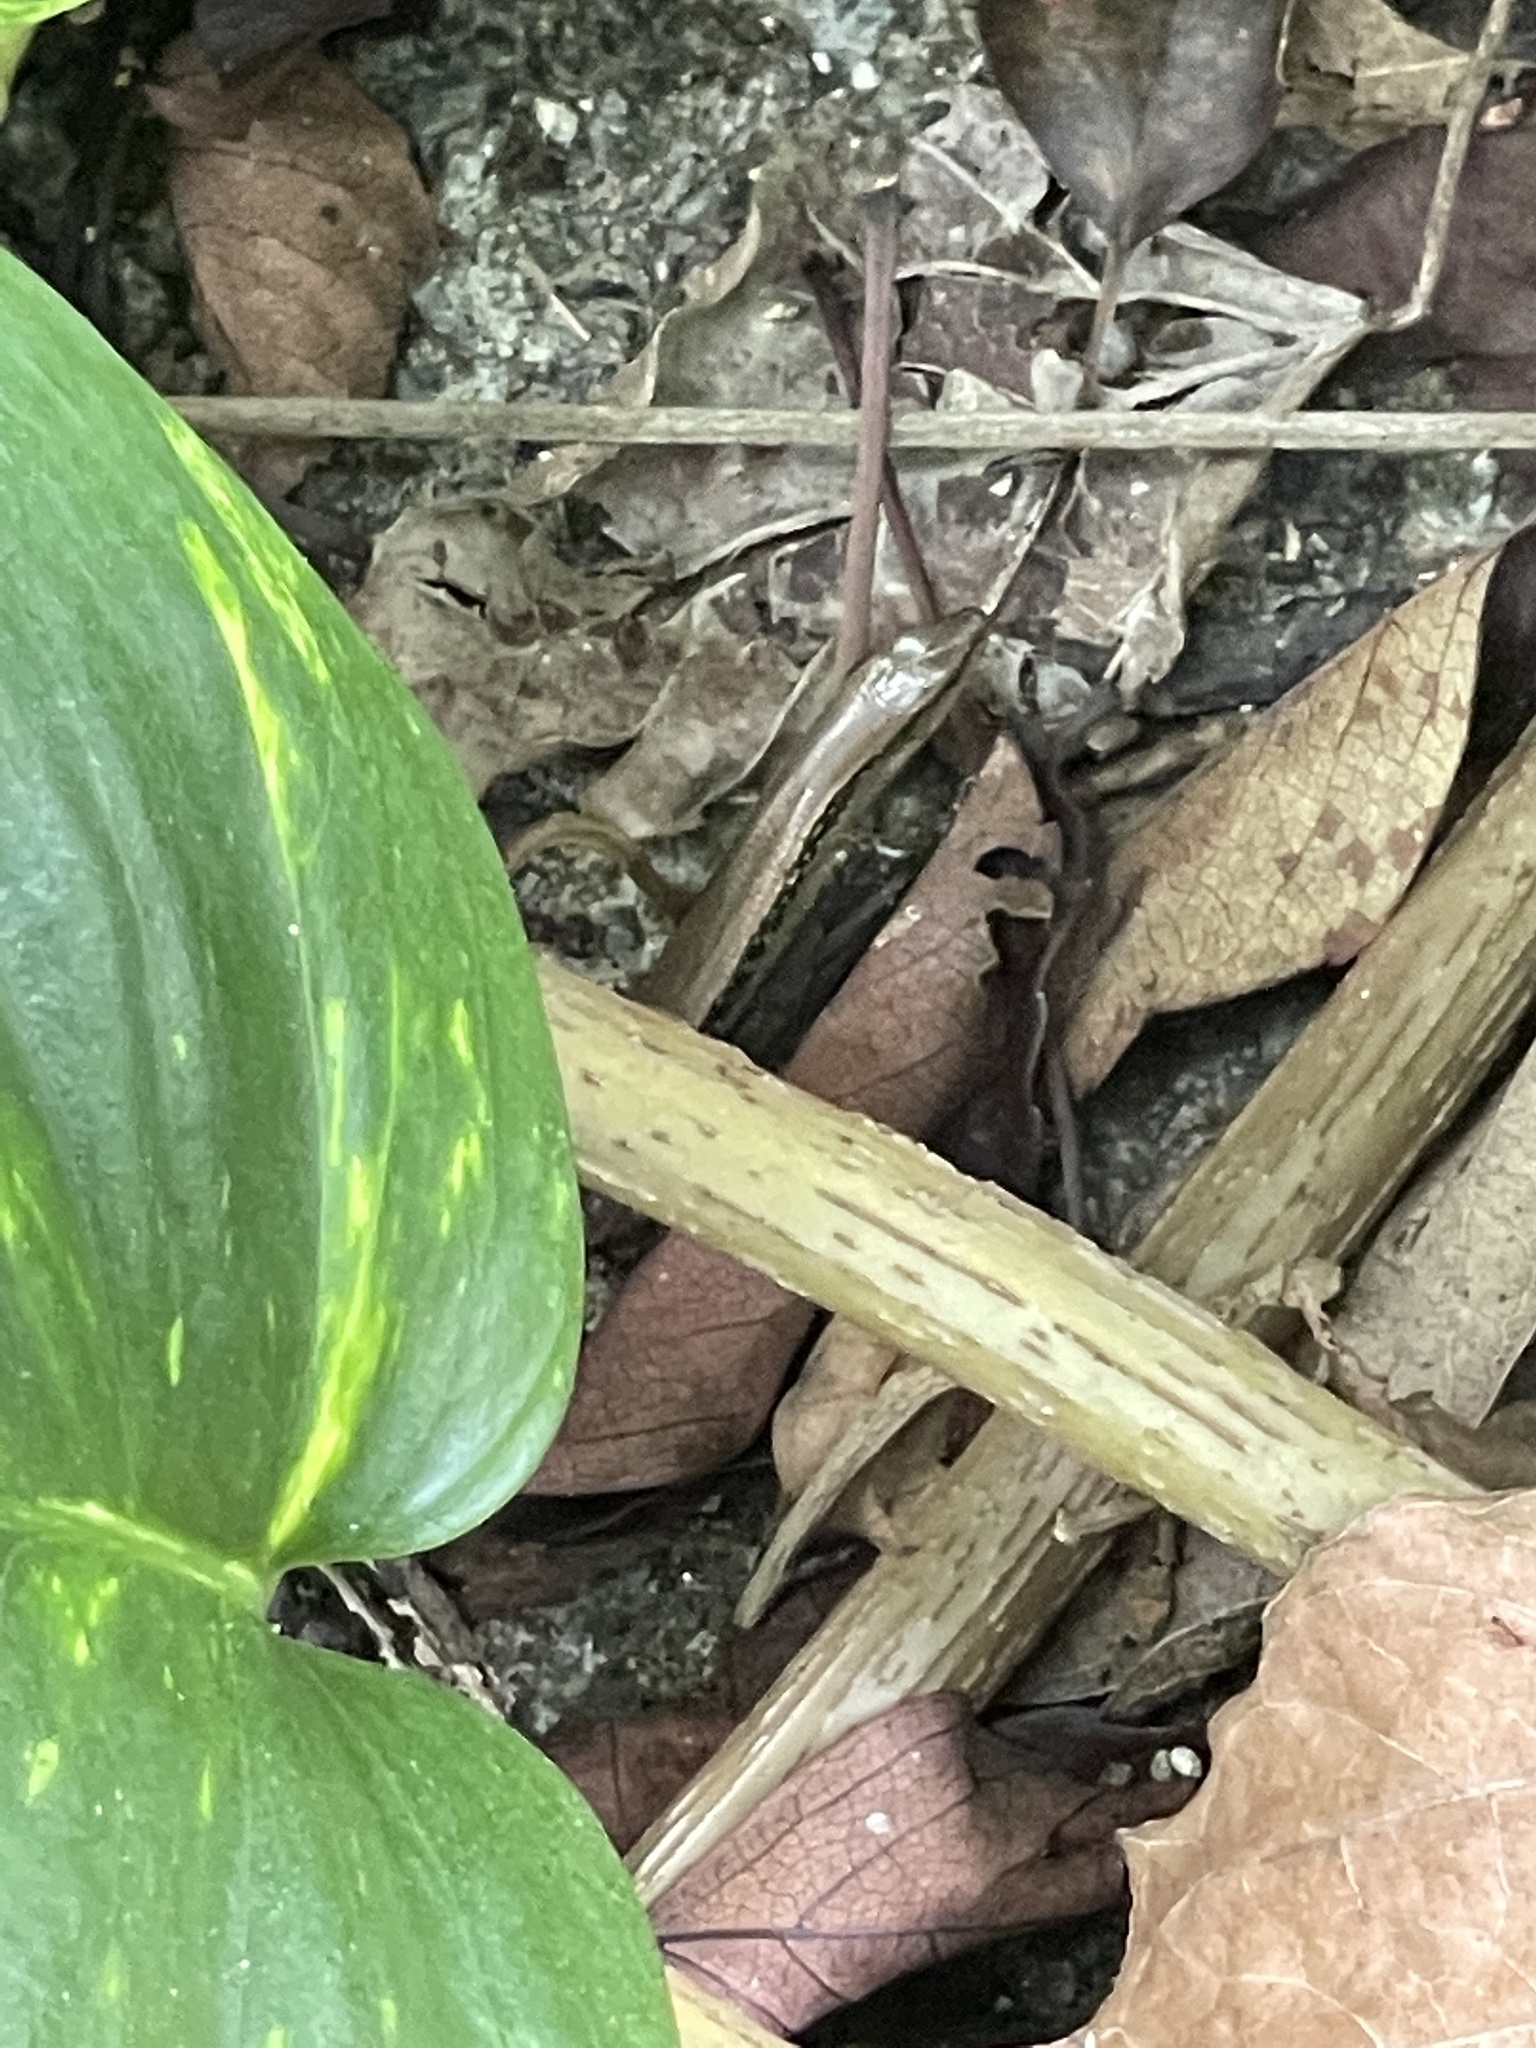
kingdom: Animalia
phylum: Chordata
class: Squamata
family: Scincidae
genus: Scincella
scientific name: Scincella reevesii
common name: Reeves’ smooth gecko
